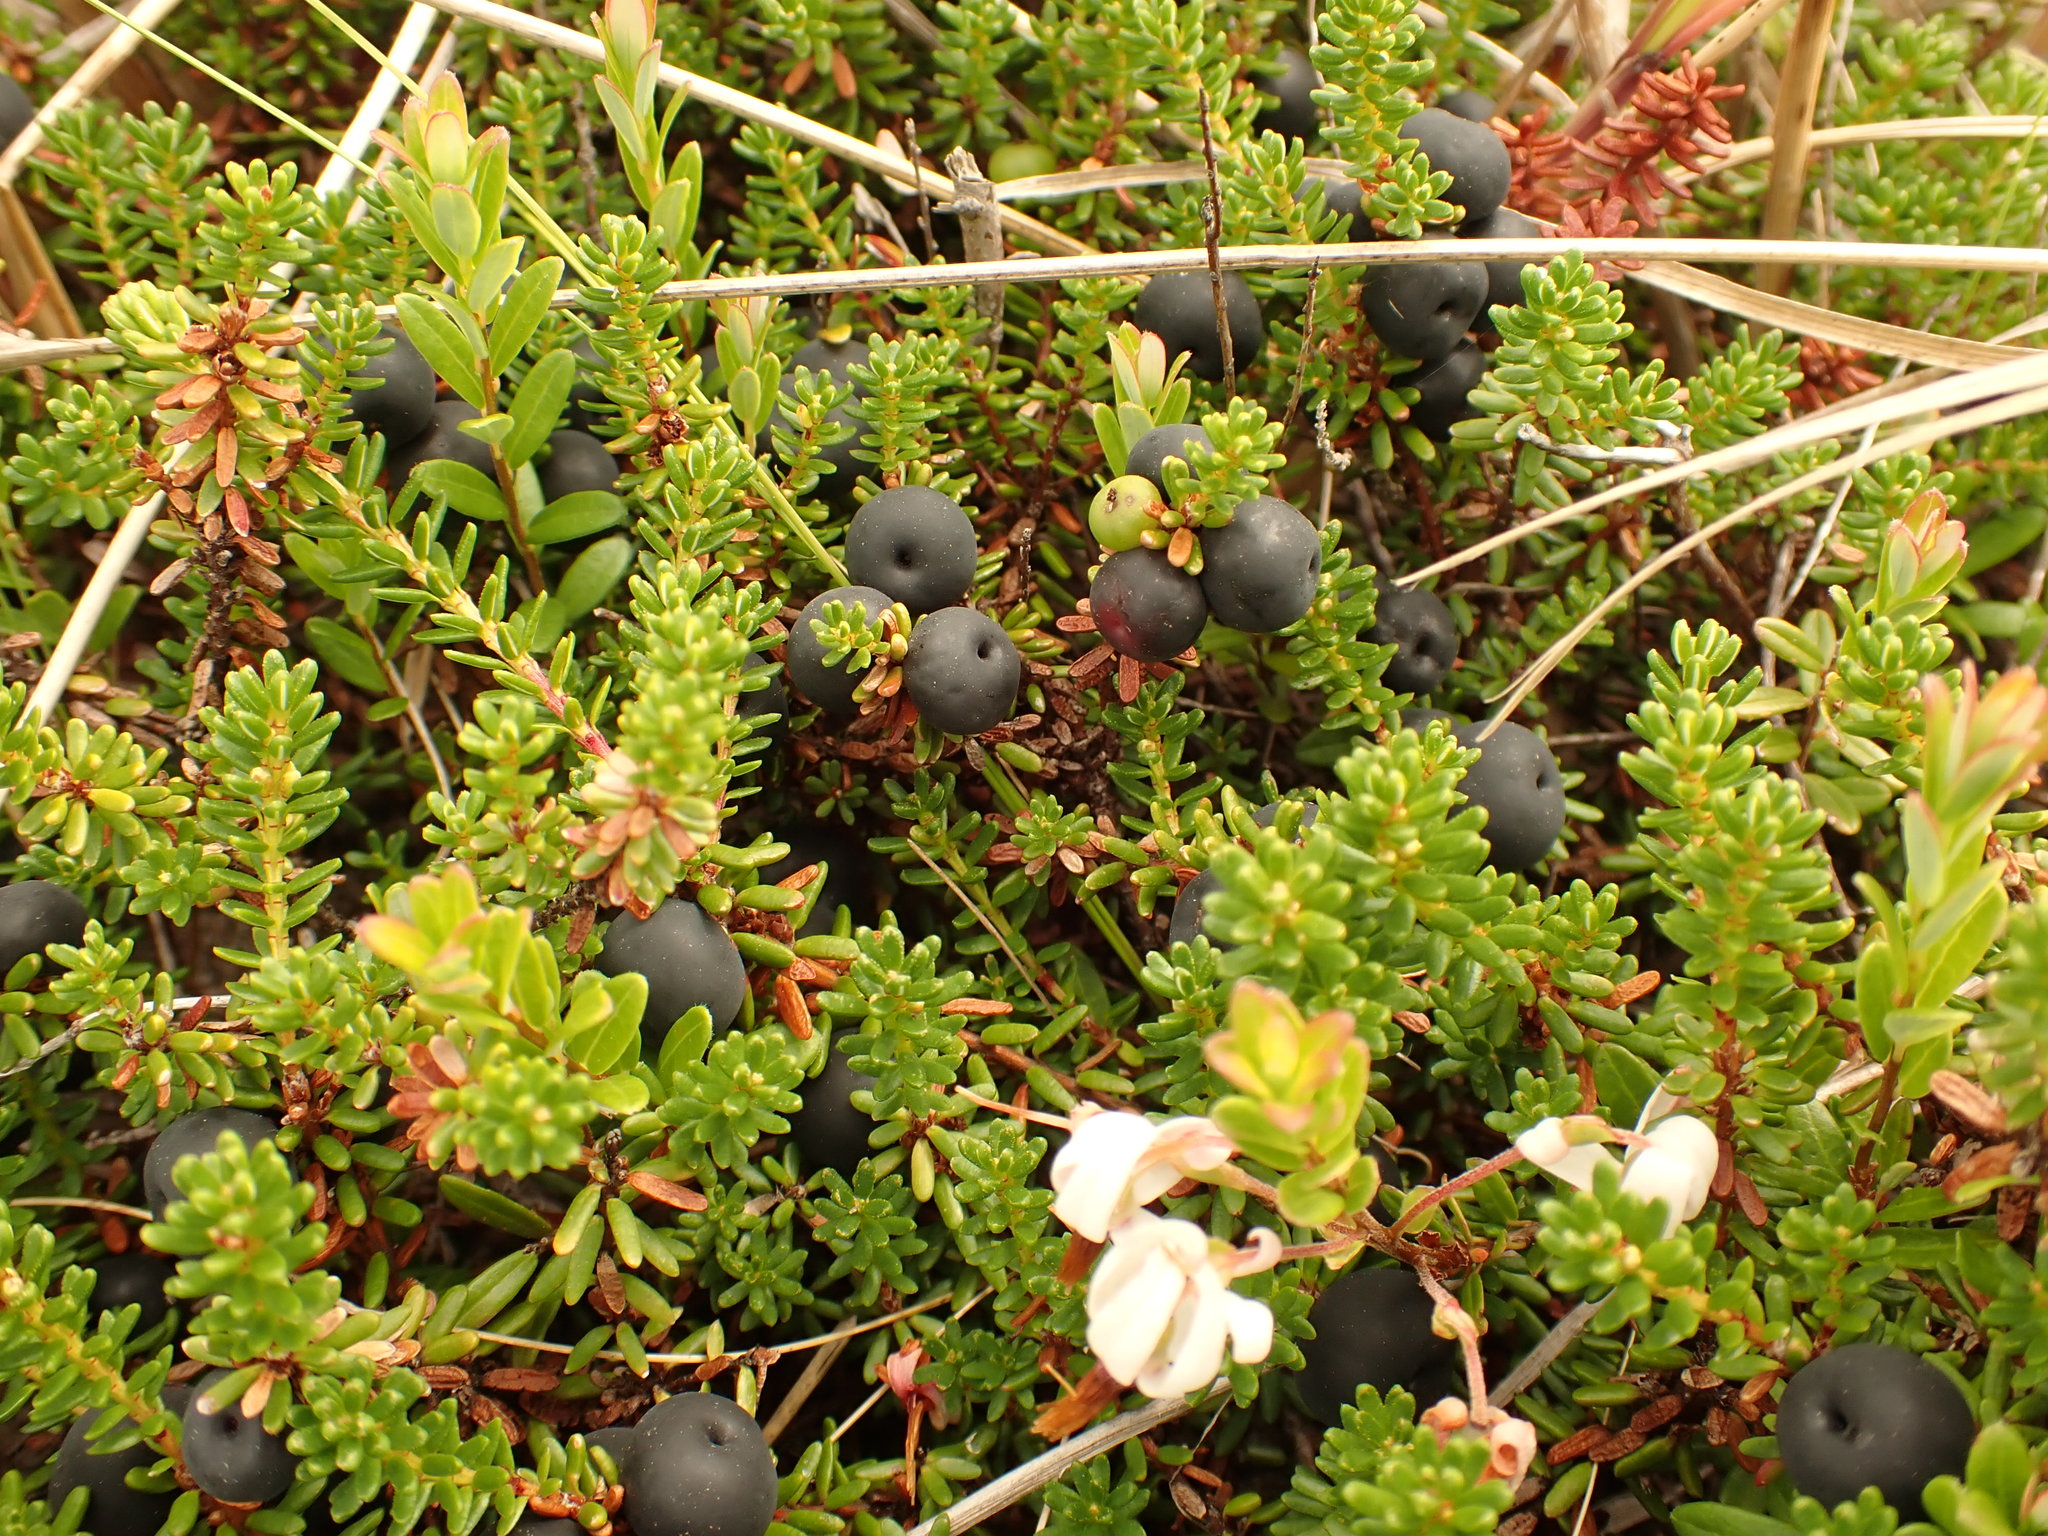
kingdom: Plantae
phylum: Tracheophyta
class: Magnoliopsida
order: Ericales
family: Ericaceae
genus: Empetrum
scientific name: Empetrum nigrum
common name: Black crowberry
